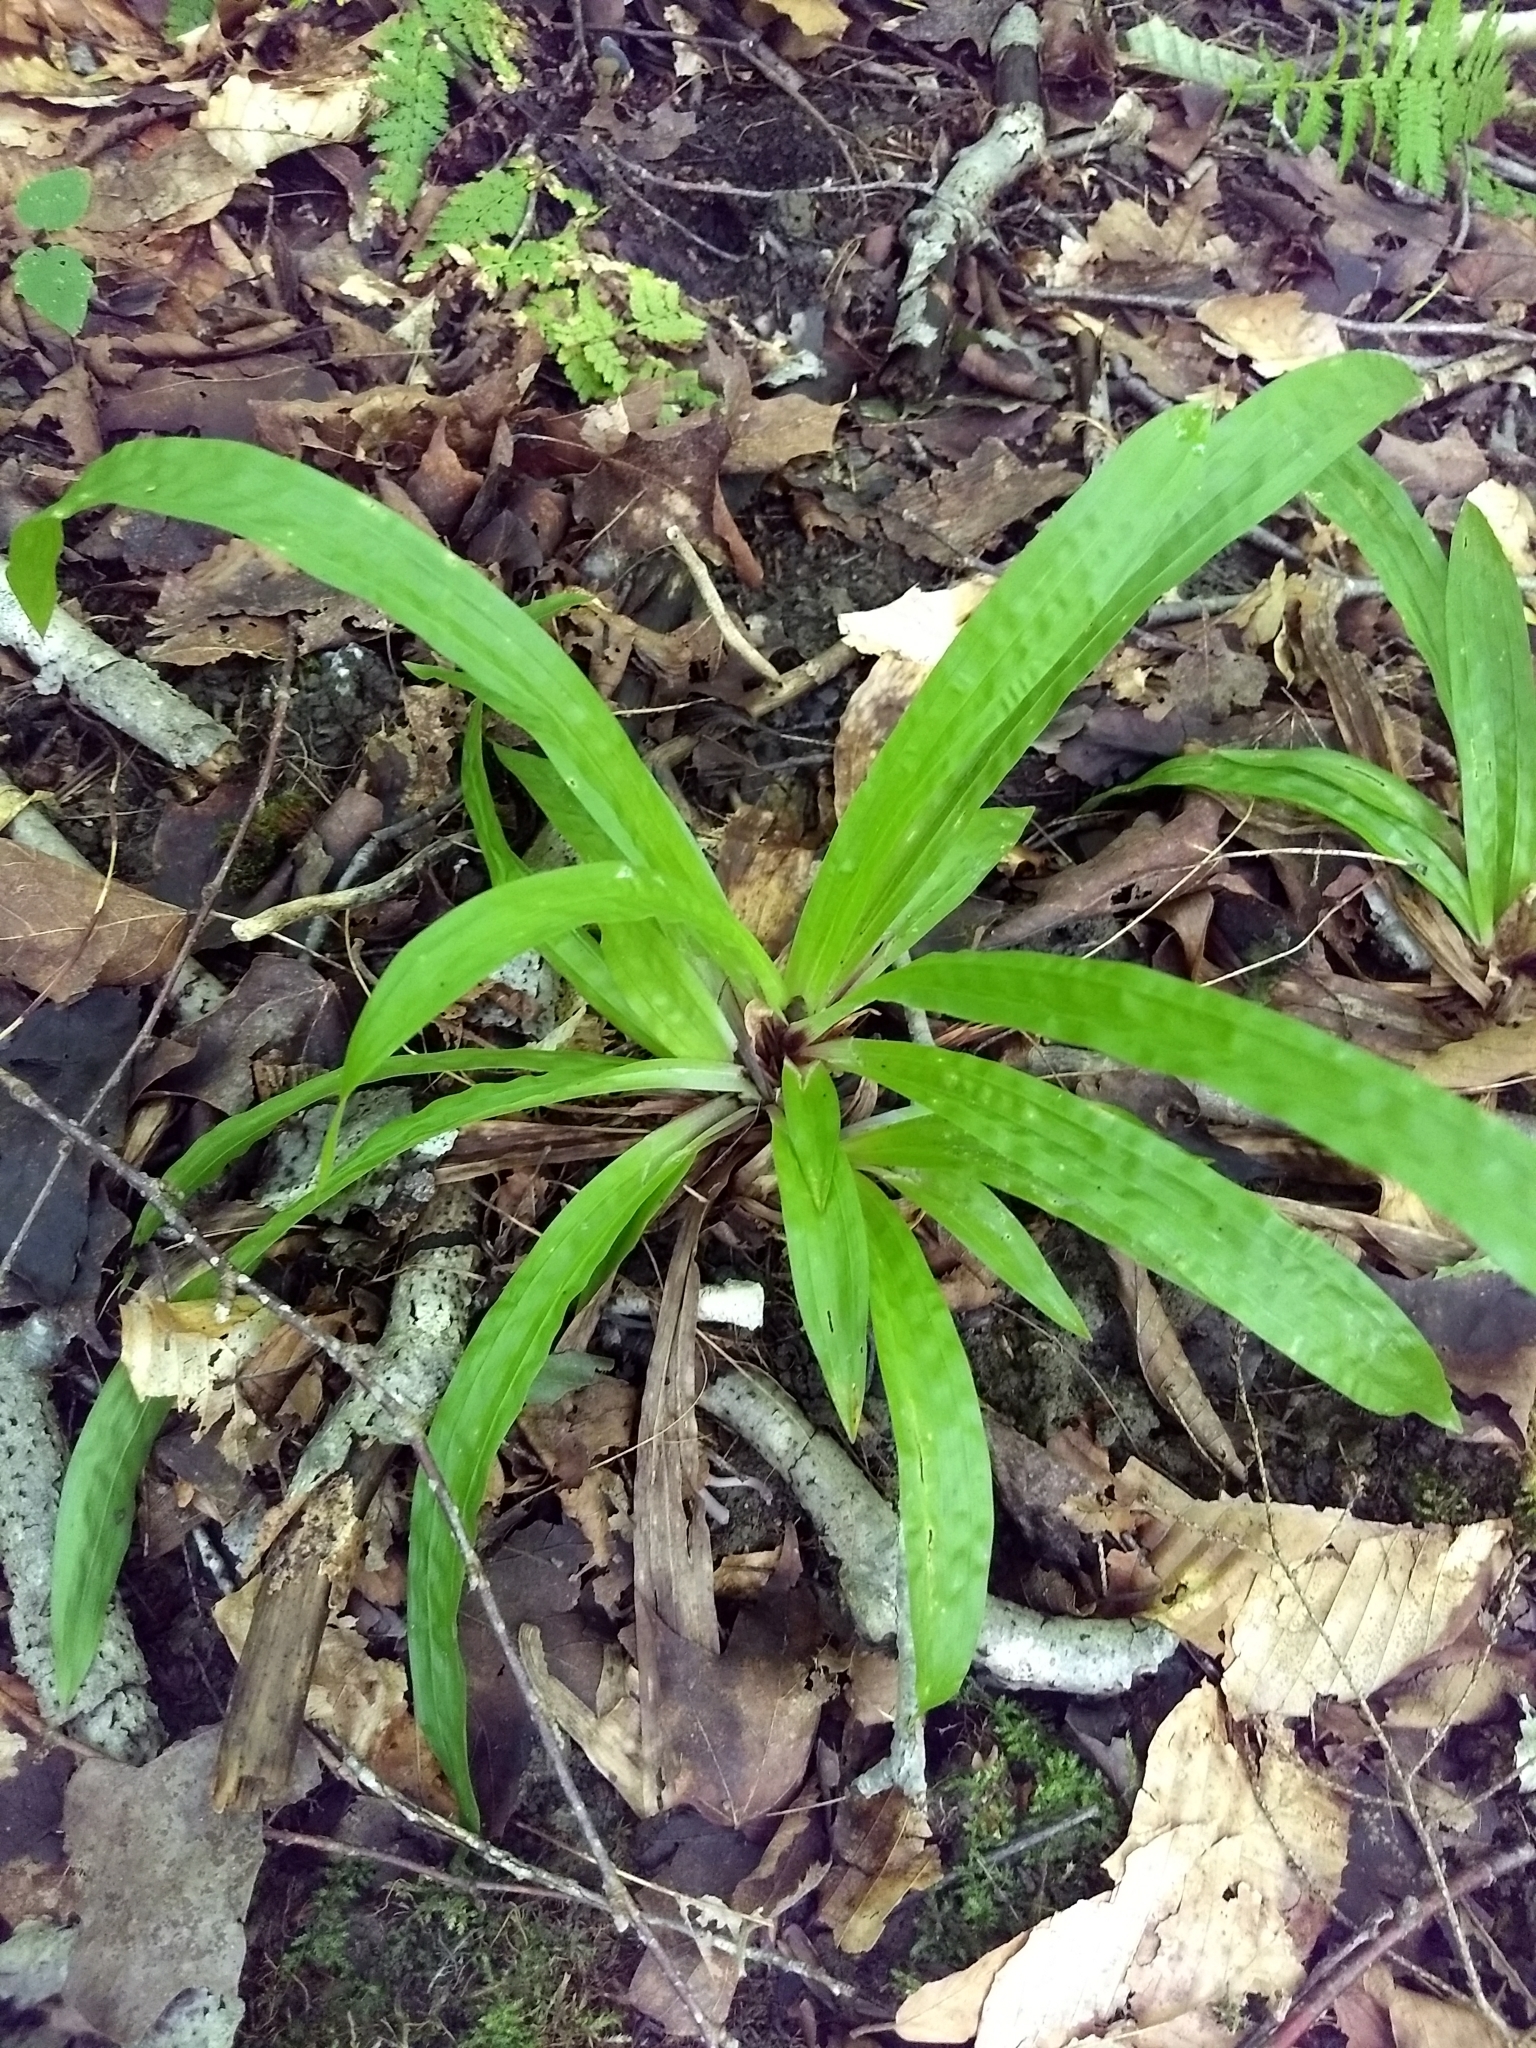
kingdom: Plantae
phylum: Tracheophyta
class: Liliopsida
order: Poales
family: Cyperaceae
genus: Carex
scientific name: Carex plantaginea
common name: Plantain-leaved sedge
